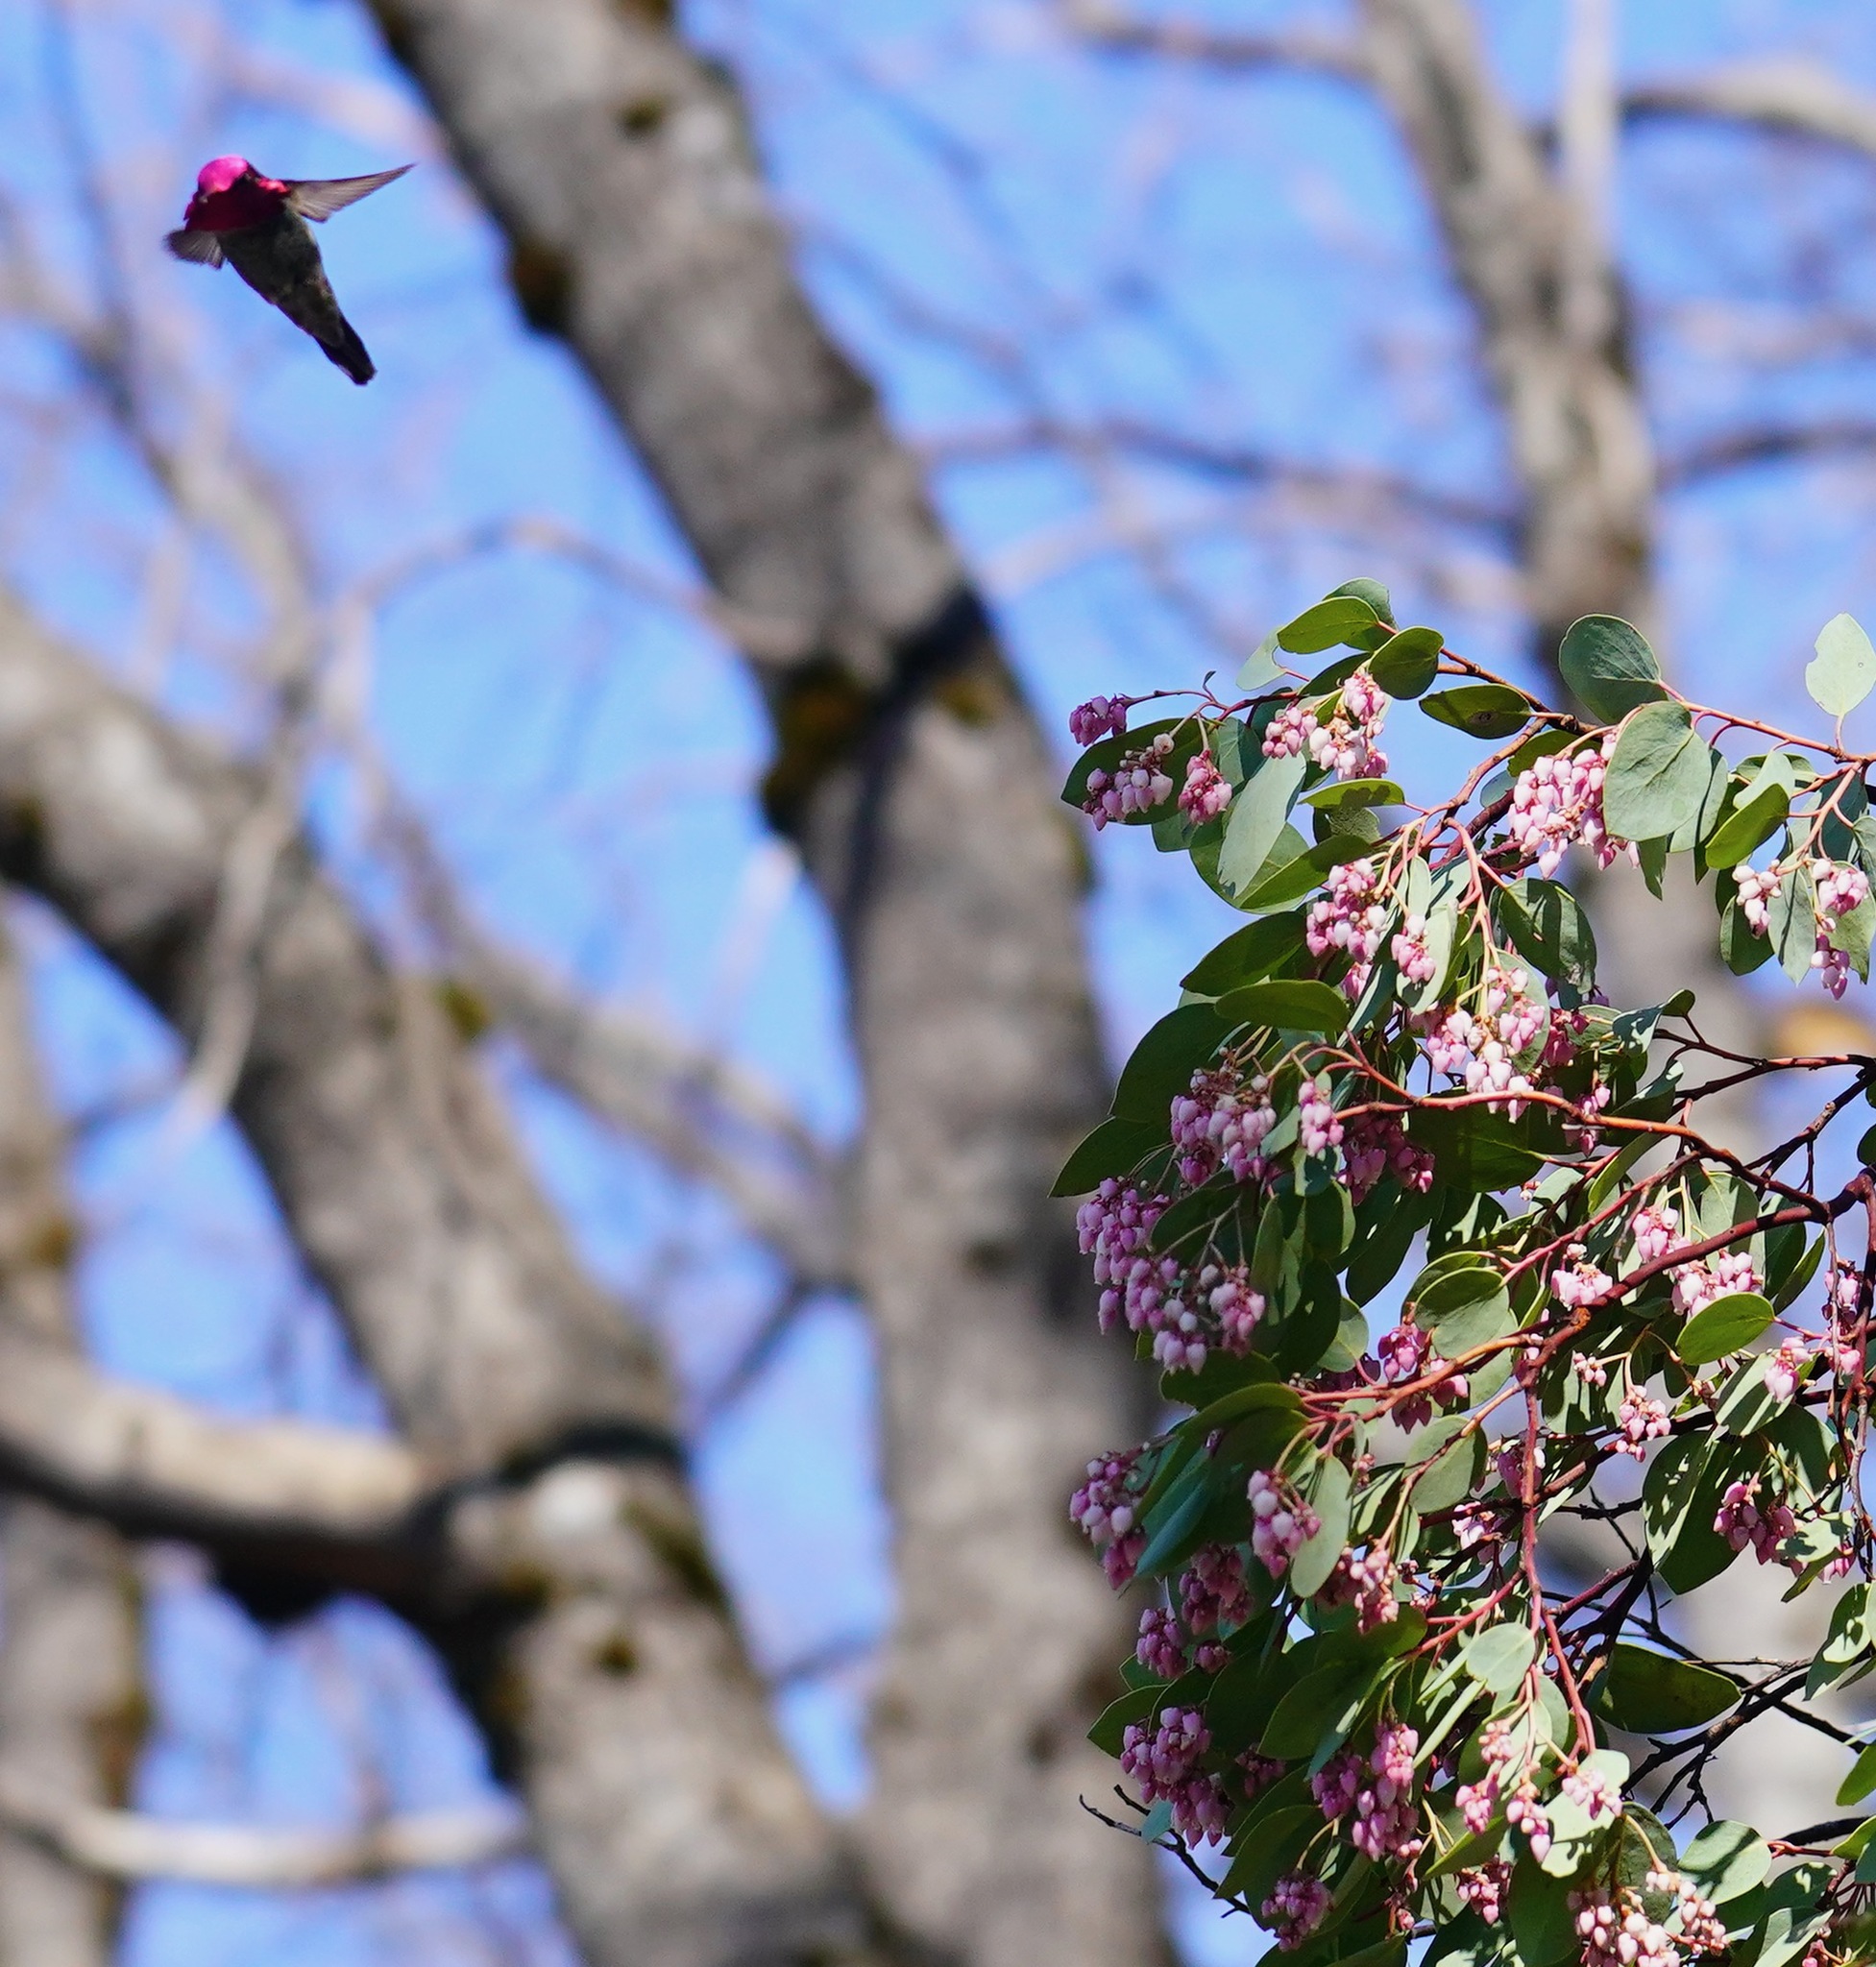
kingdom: Animalia
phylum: Chordata
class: Aves
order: Apodiformes
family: Trochilidae
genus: Calypte
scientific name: Calypte anna
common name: Anna's hummingbird
